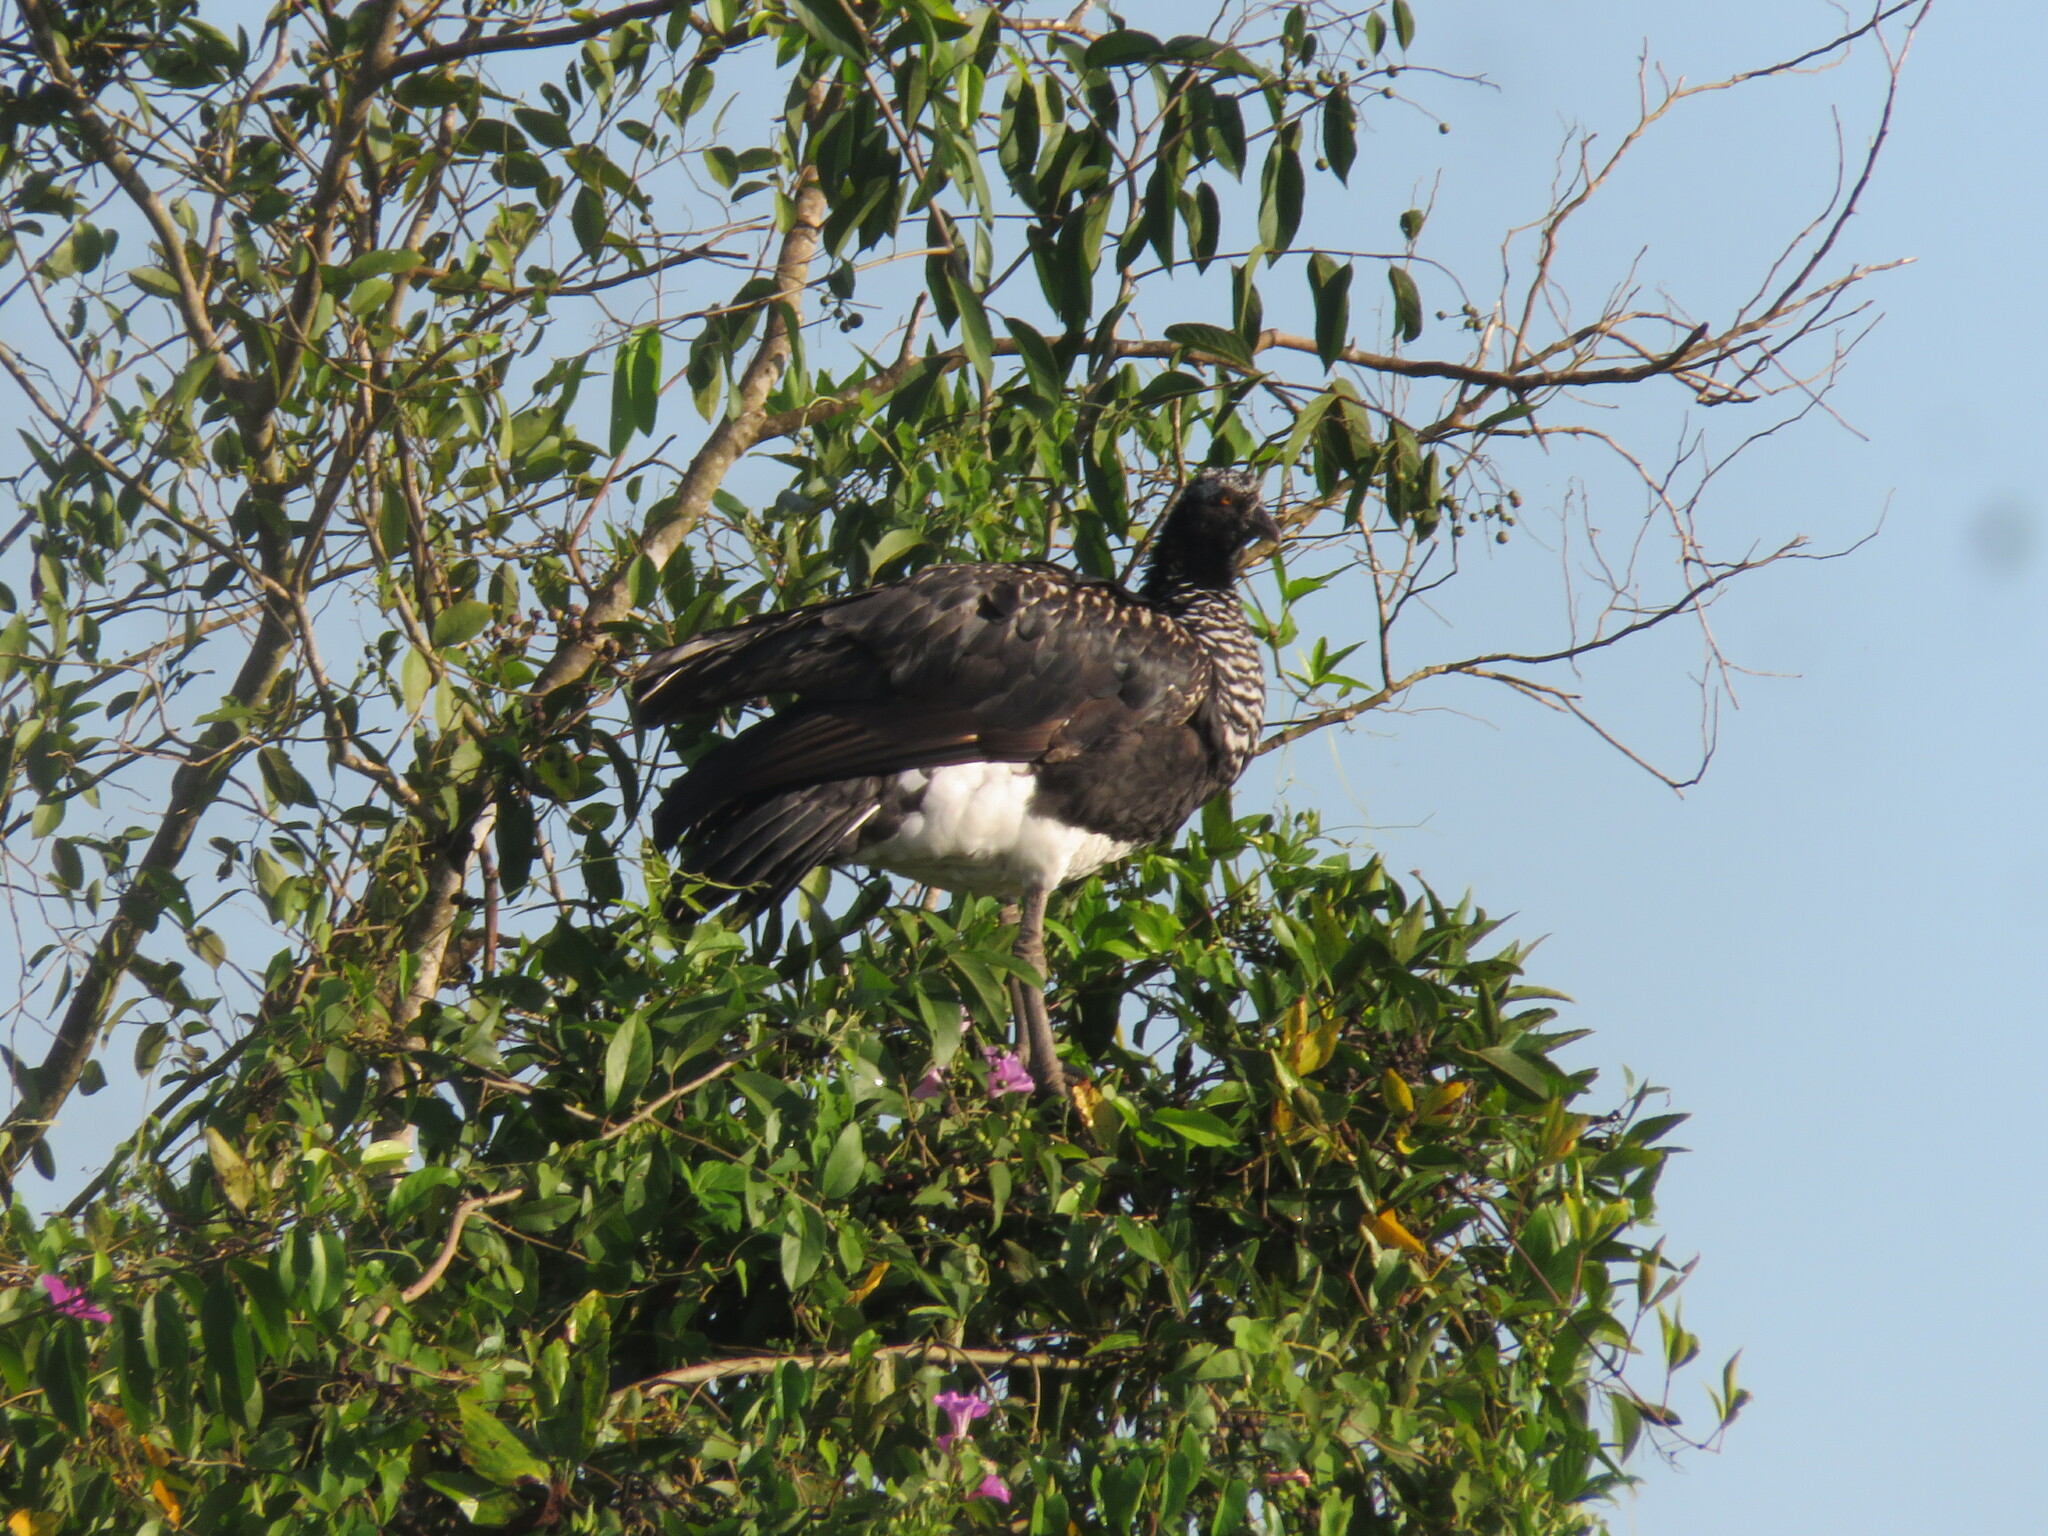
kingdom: Animalia
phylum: Chordata
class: Aves
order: Anseriformes
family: Anhimidae
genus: Anhima
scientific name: Anhima cornuta
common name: Horned screamer
